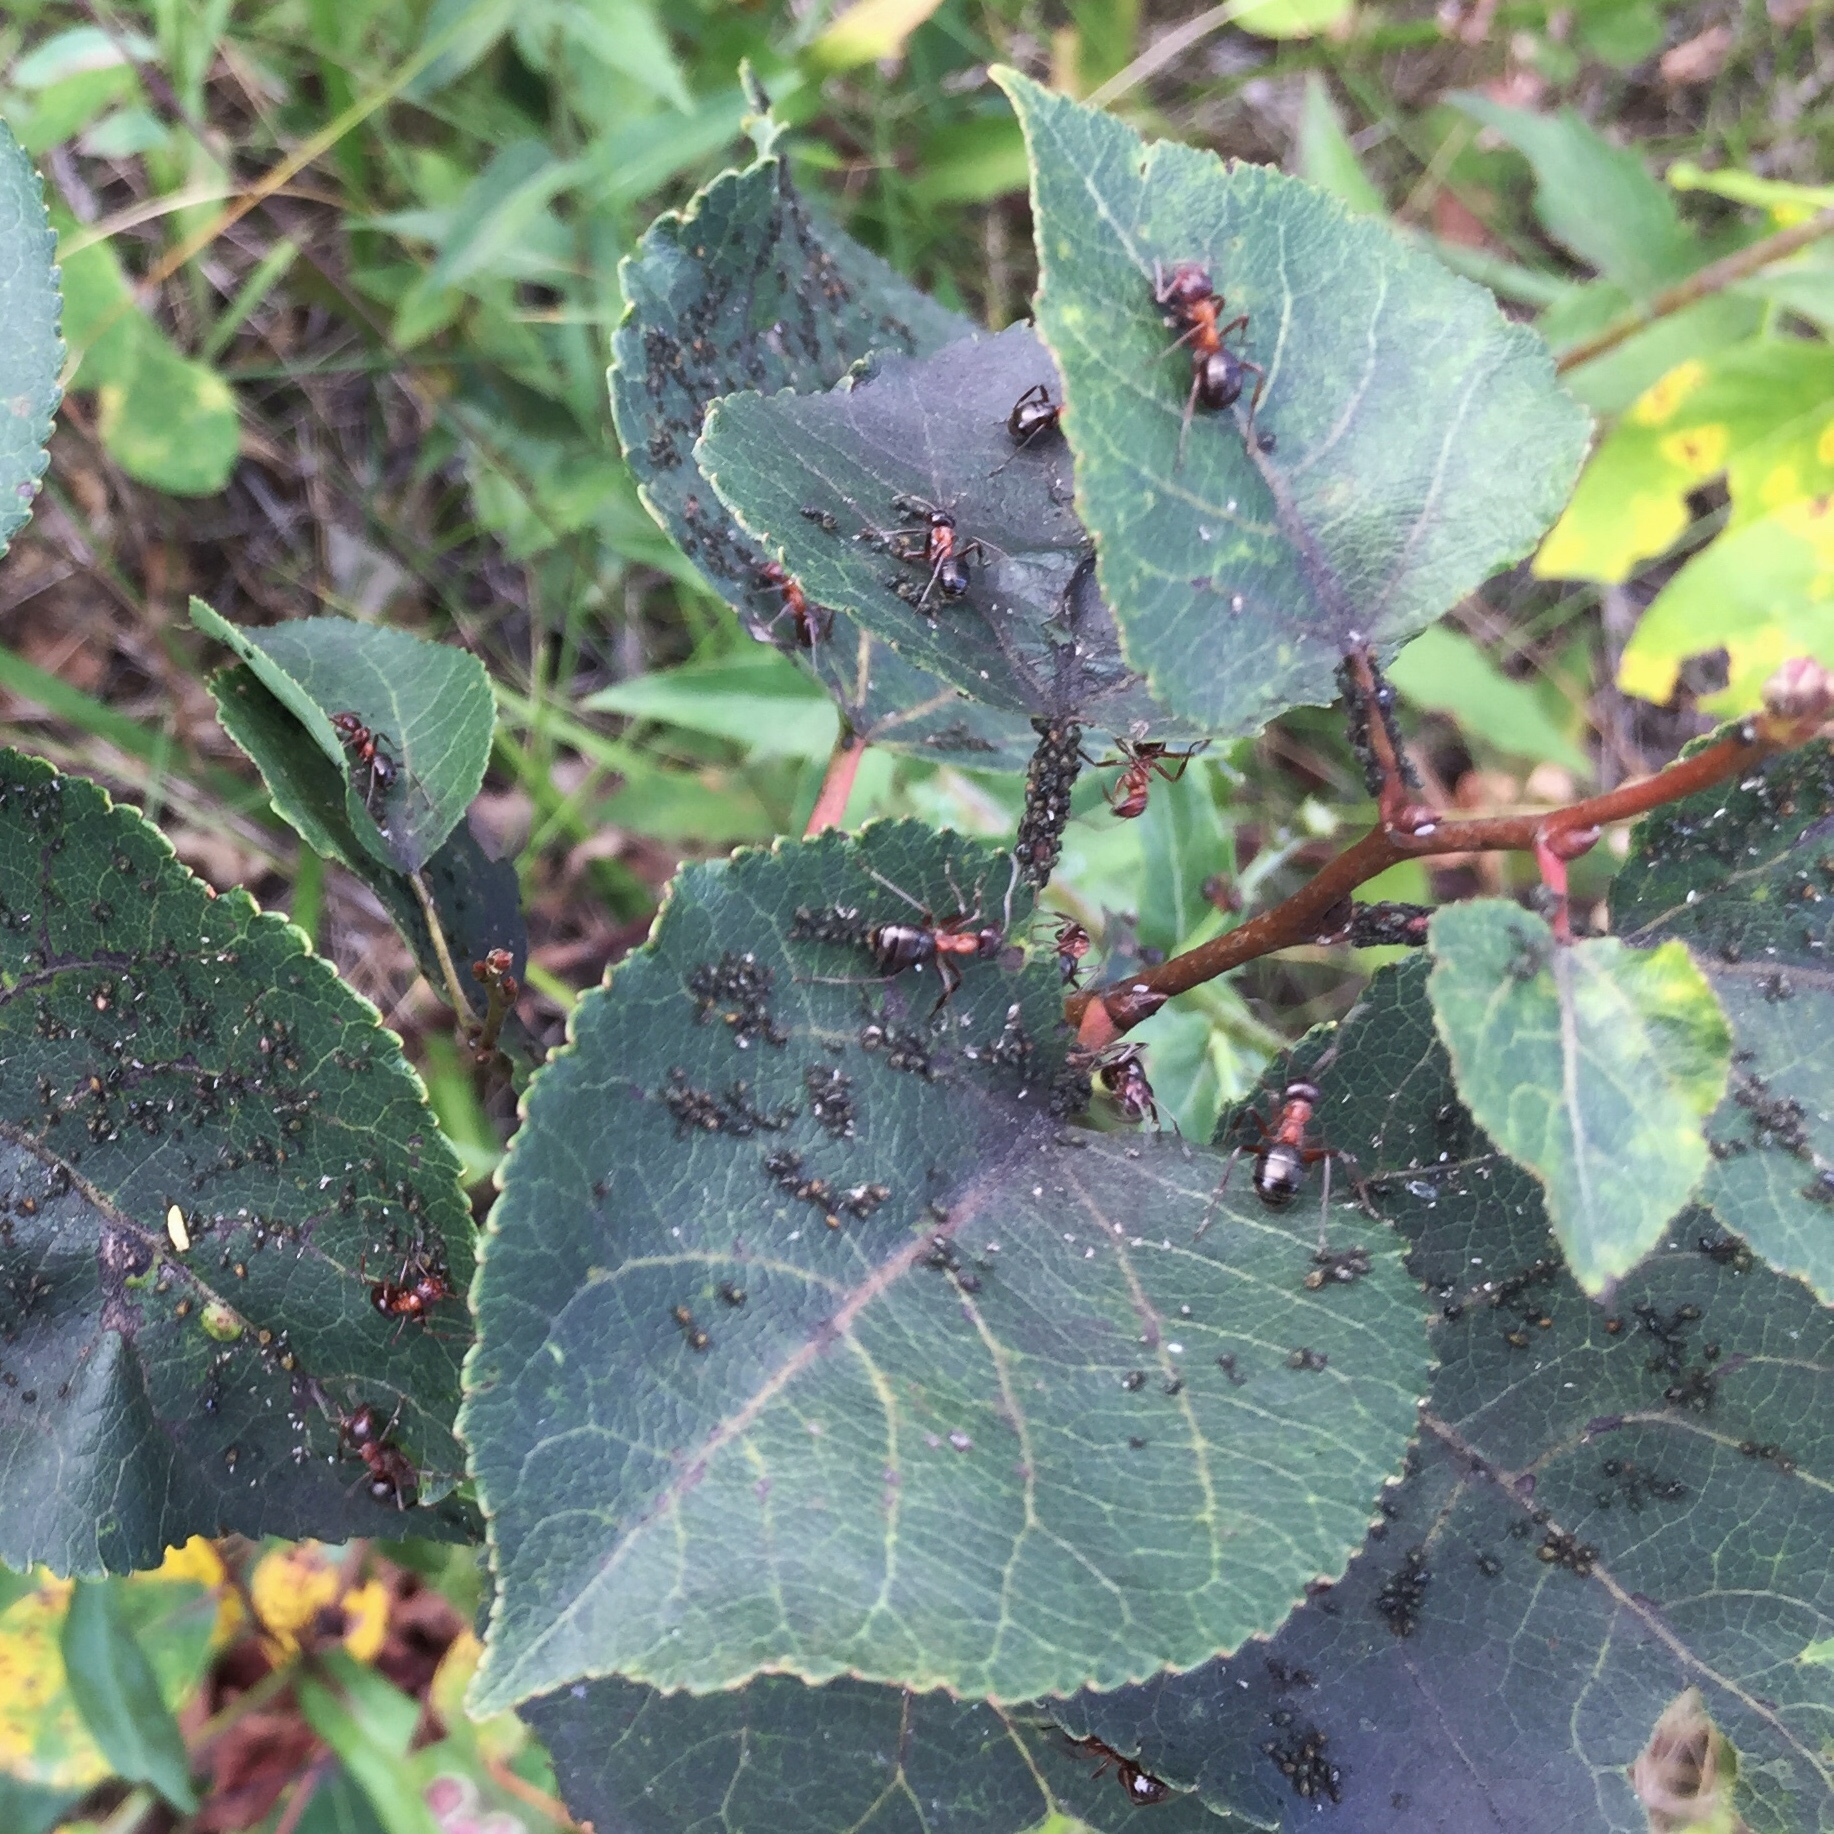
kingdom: Animalia
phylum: Arthropoda
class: Insecta
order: Hymenoptera
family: Formicidae
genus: Formica
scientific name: Formica ulkei
